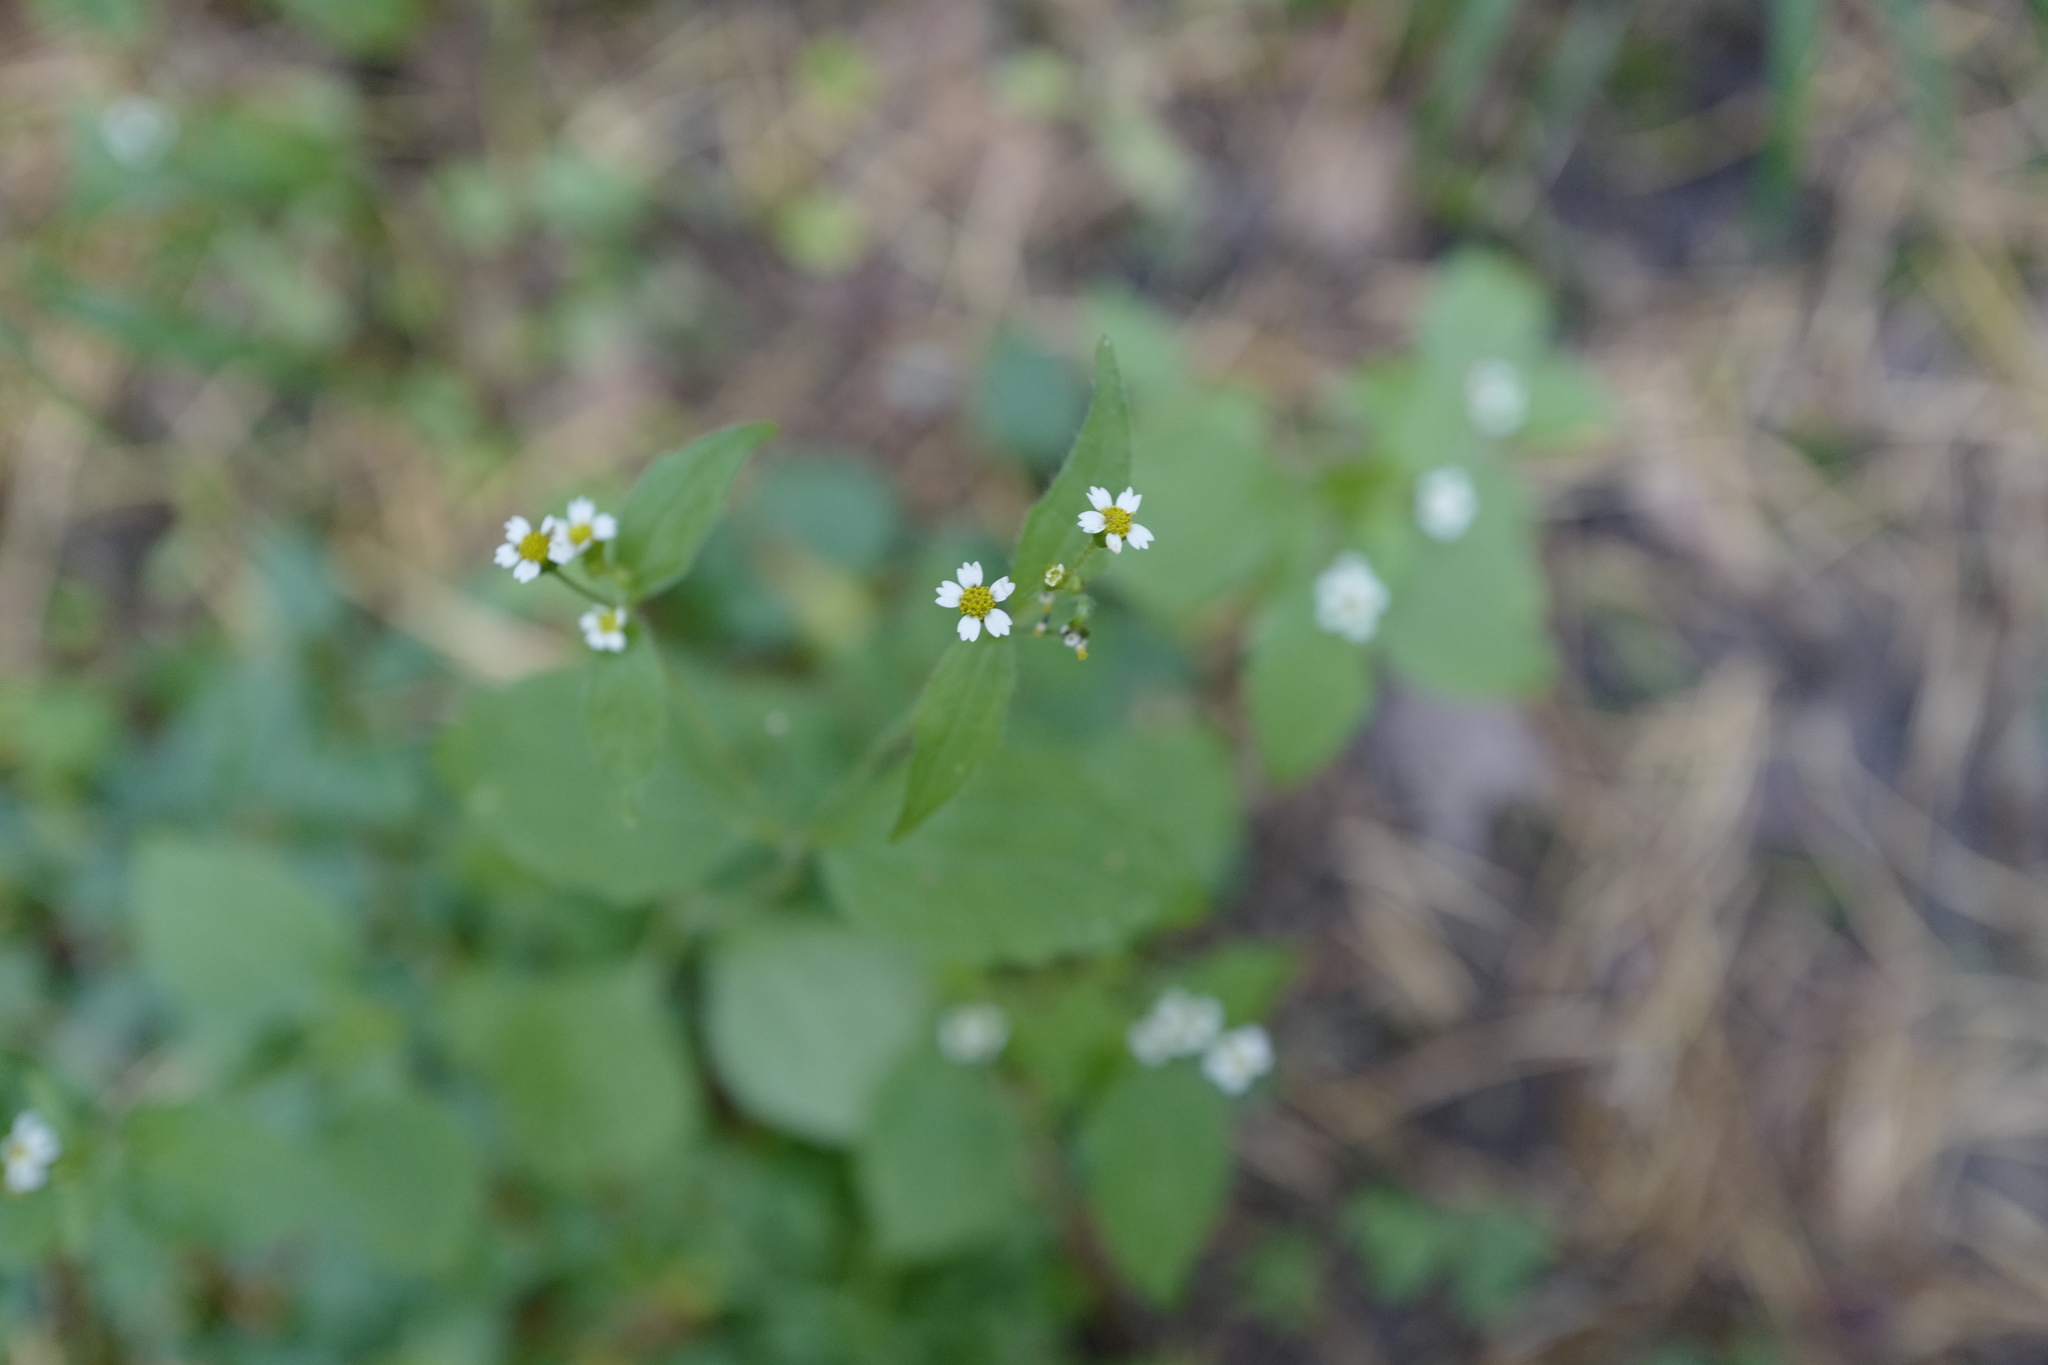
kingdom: Plantae
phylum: Tracheophyta
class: Magnoliopsida
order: Asterales
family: Asteraceae
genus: Galinsoga
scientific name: Galinsoga quadriradiata
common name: Shaggy soldier
